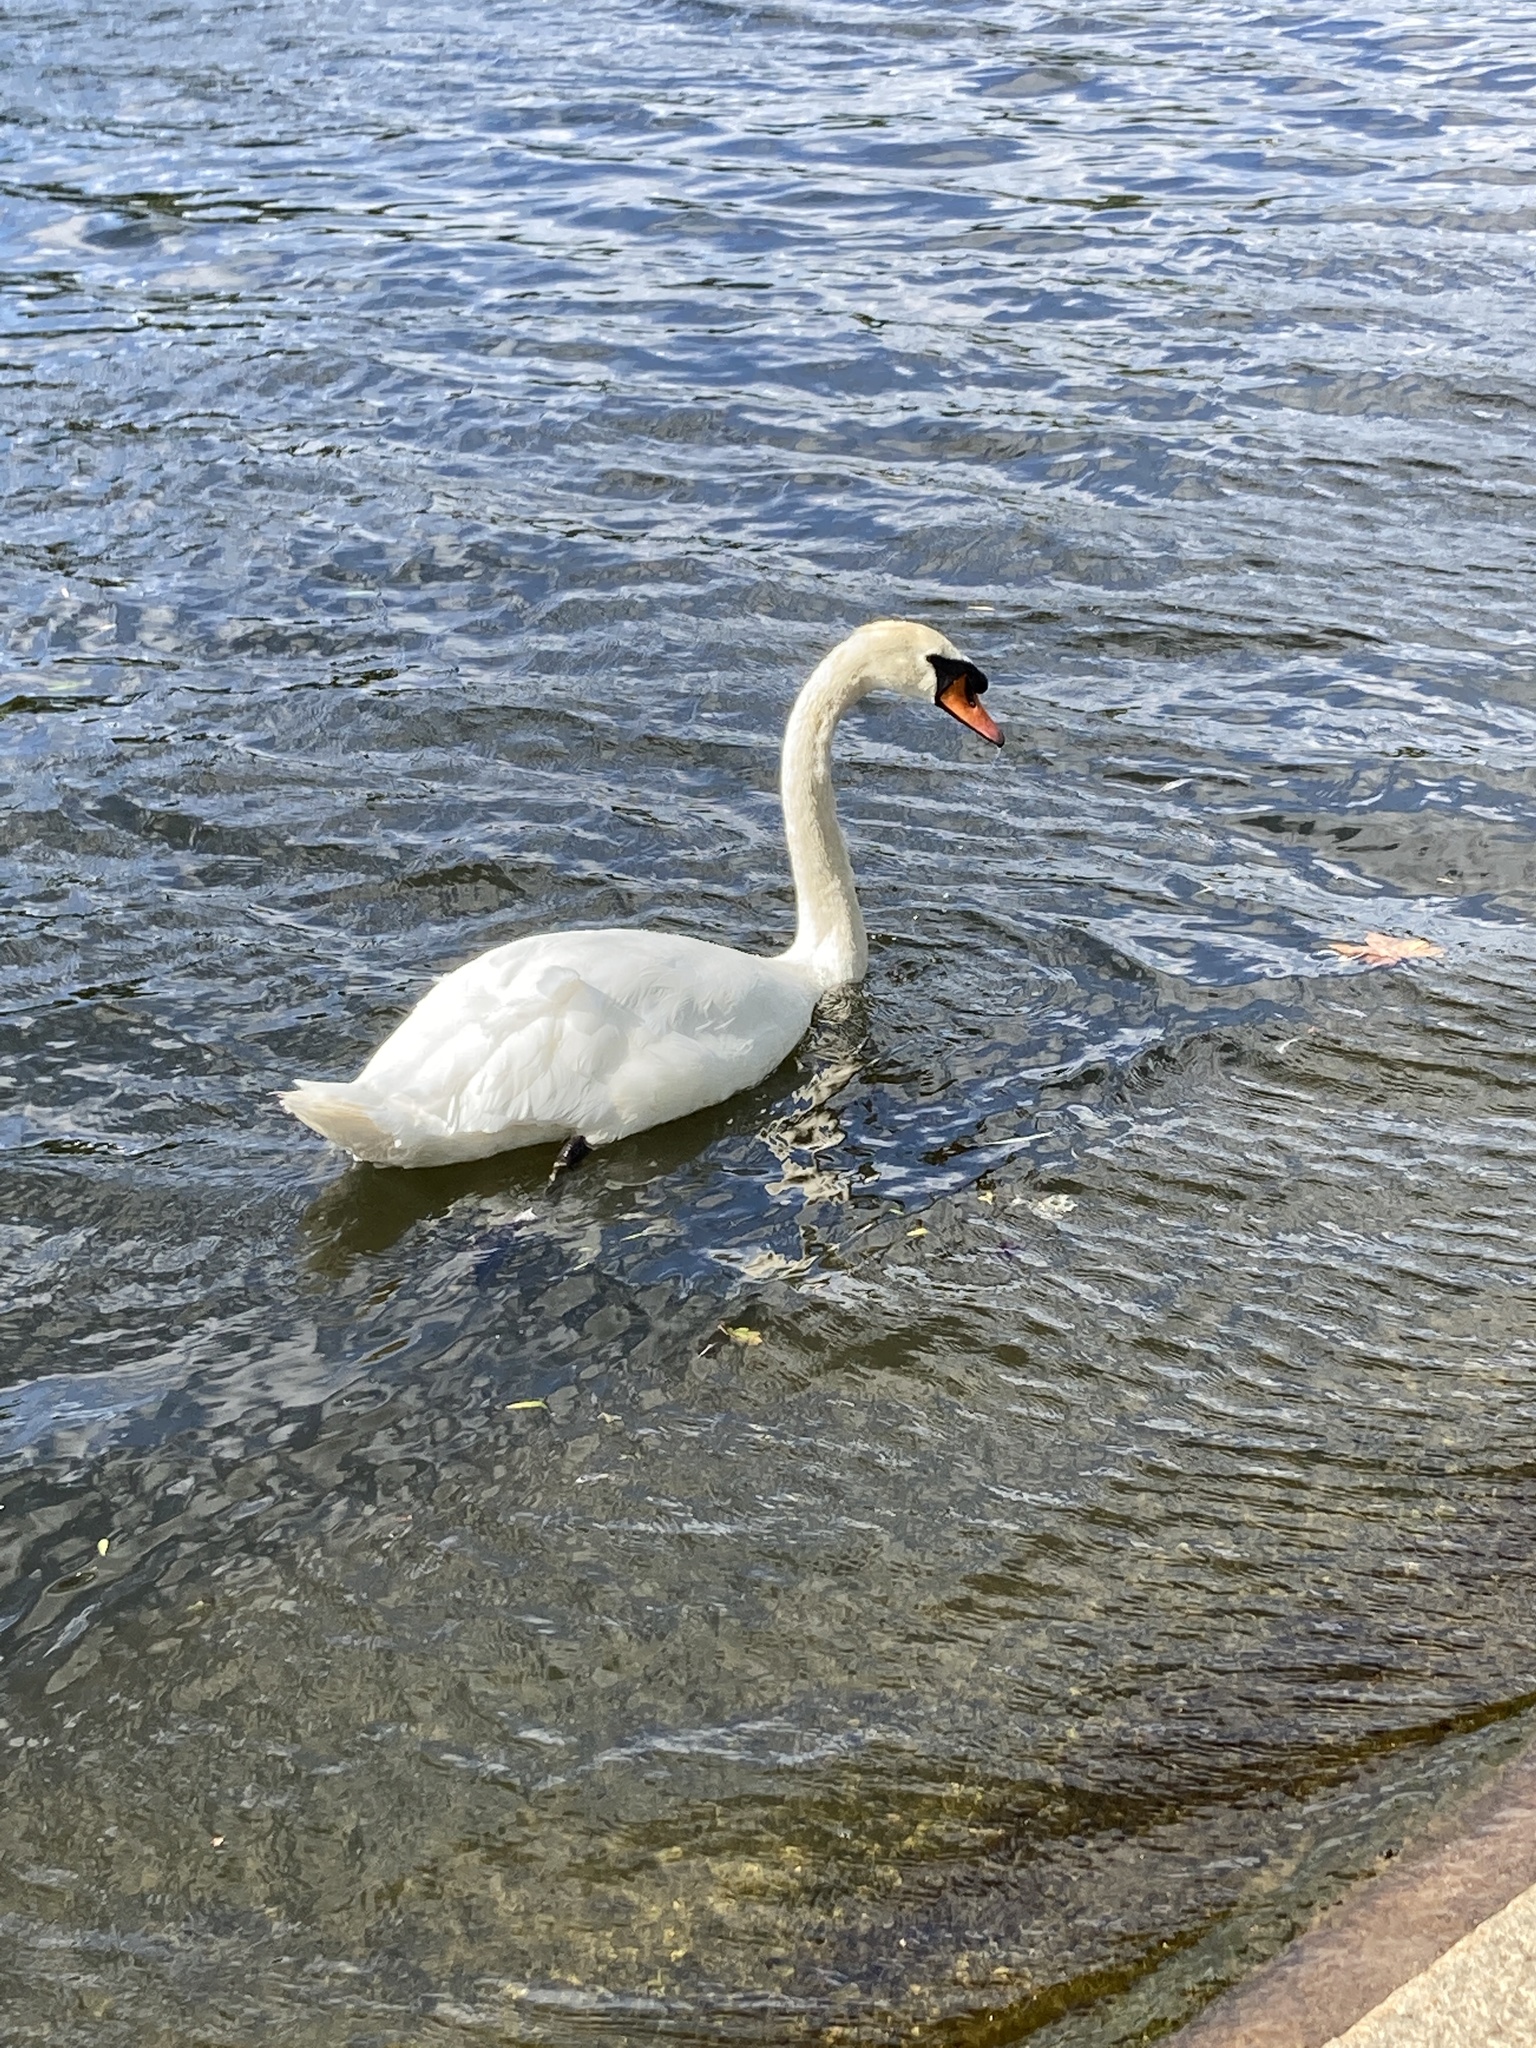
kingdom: Animalia
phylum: Chordata
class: Aves
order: Anseriformes
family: Anatidae
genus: Cygnus
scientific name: Cygnus olor
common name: Mute swan
